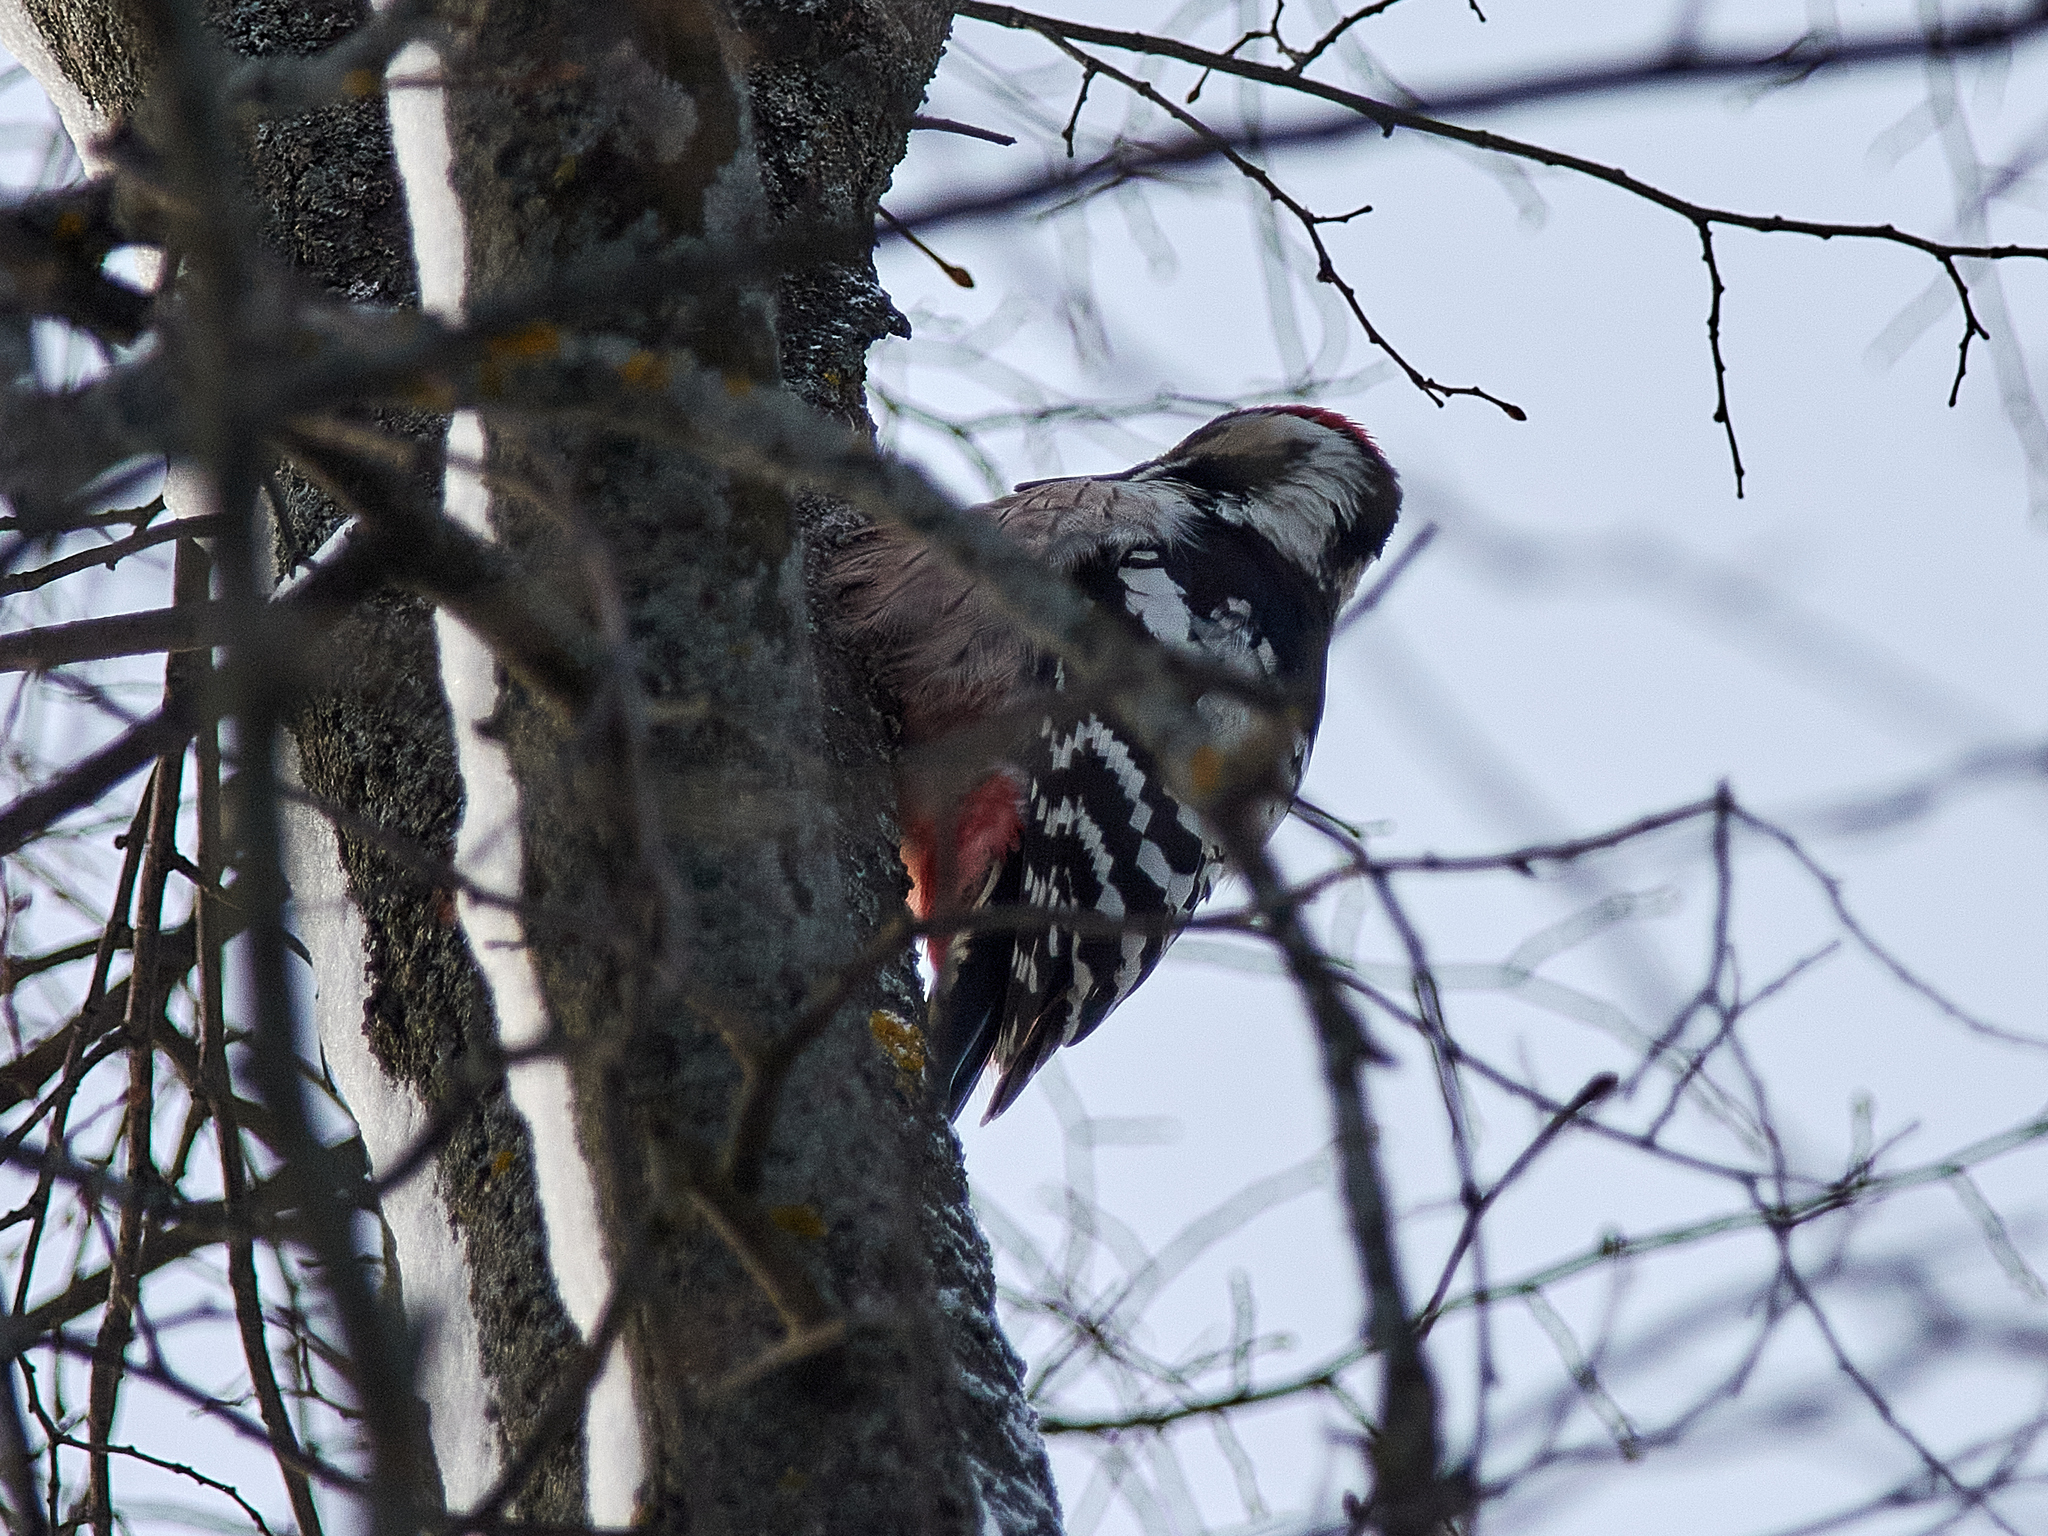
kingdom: Animalia
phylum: Chordata
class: Aves
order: Piciformes
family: Picidae
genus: Dendrocopos
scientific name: Dendrocopos leucotos
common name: White-backed woodpecker
